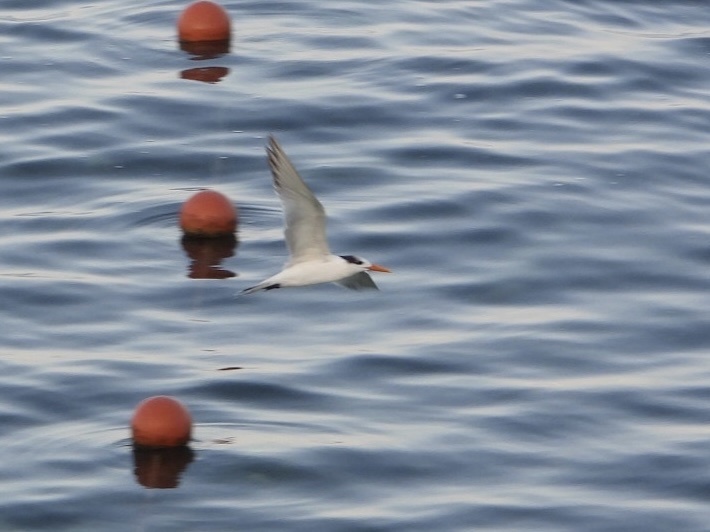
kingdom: Animalia
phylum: Chordata
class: Aves
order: Charadriiformes
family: Laridae
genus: Thalasseus
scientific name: Thalasseus maximus
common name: Royal tern
